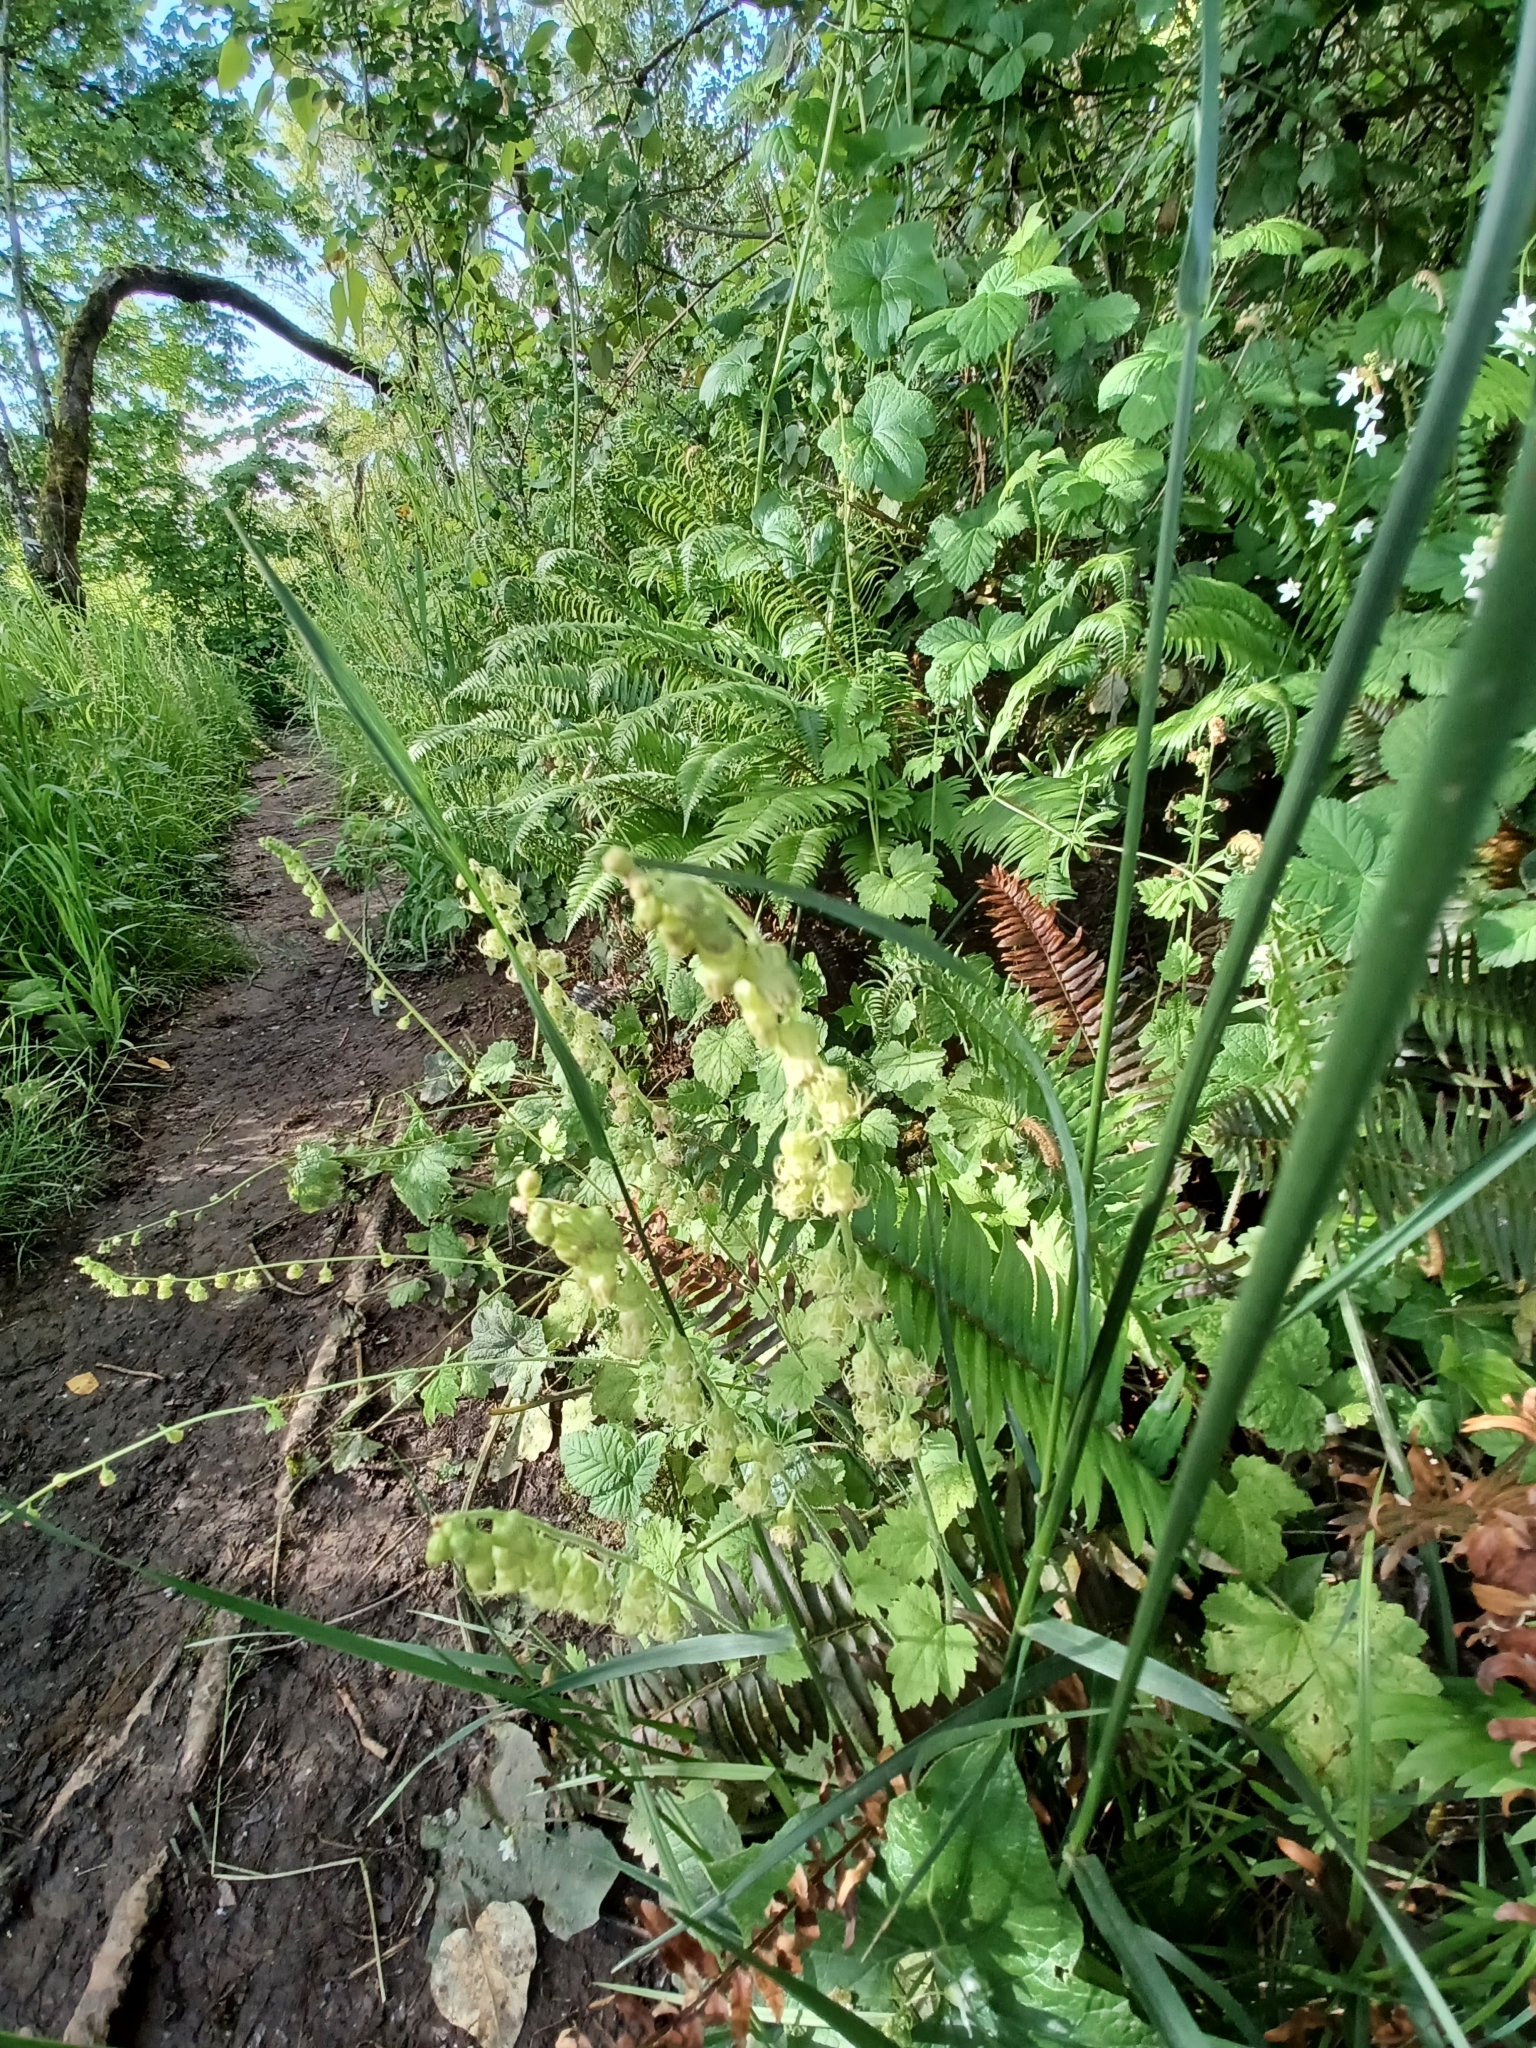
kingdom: Plantae
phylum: Tracheophyta
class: Magnoliopsida
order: Saxifragales
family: Saxifragaceae
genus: Tellima
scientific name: Tellima grandiflora
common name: Fringecups
